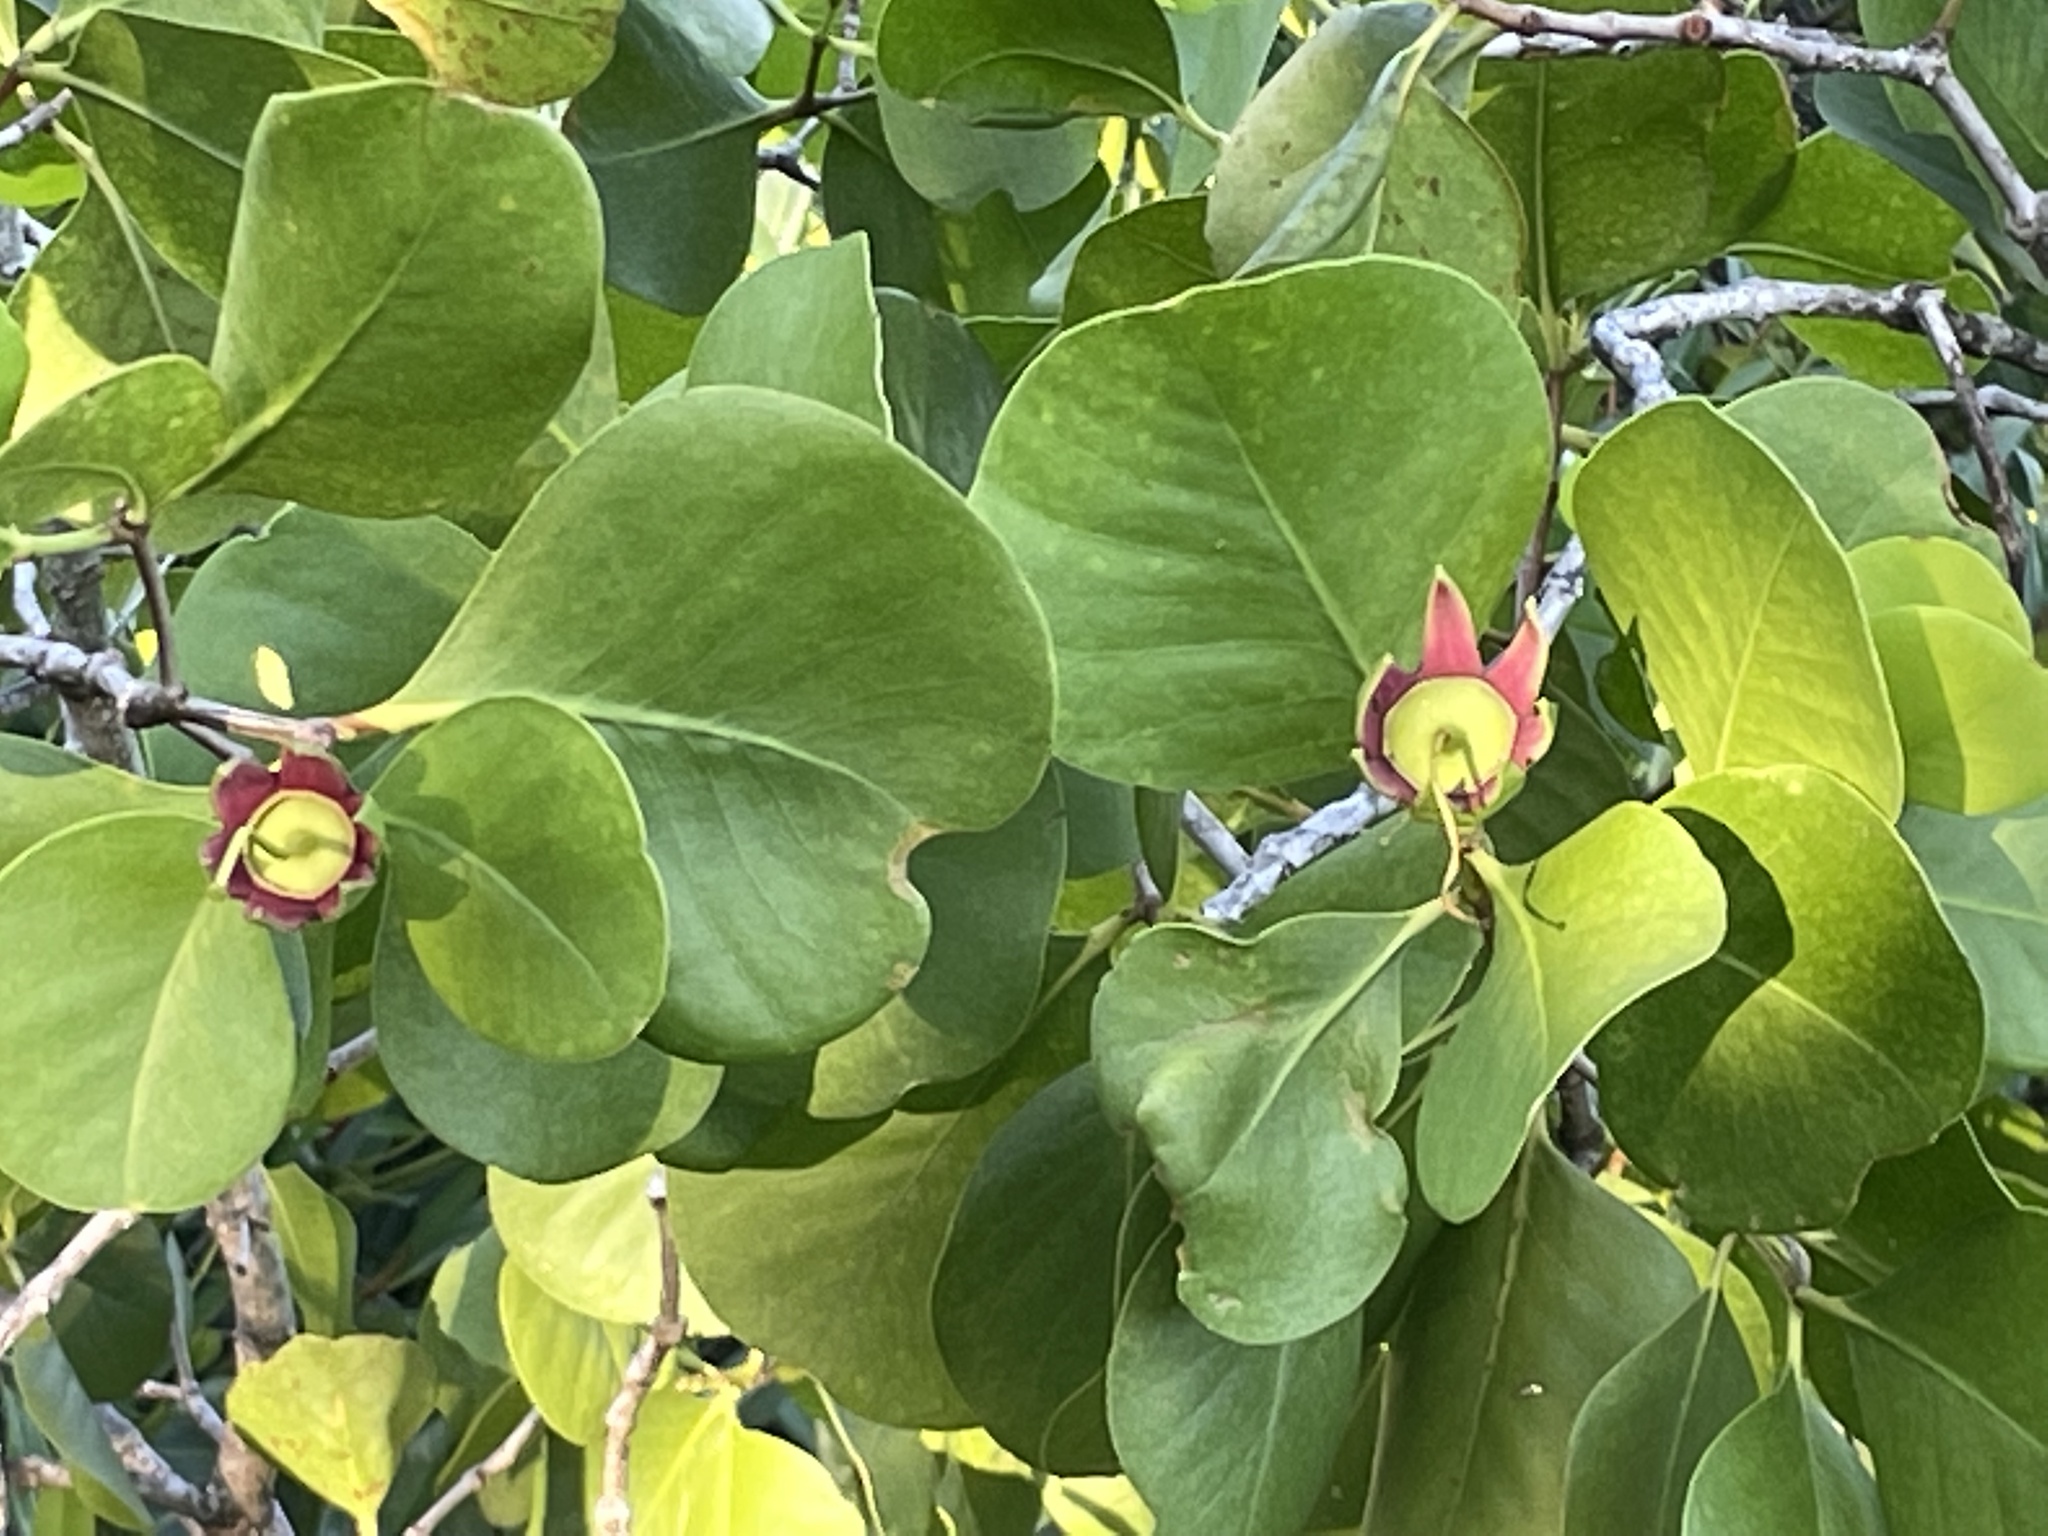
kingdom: Plantae
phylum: Tracheophyta
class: Magnoliopsida
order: Myrtales
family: Lythraceae
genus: Sonneratia
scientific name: Sonneratia alba
